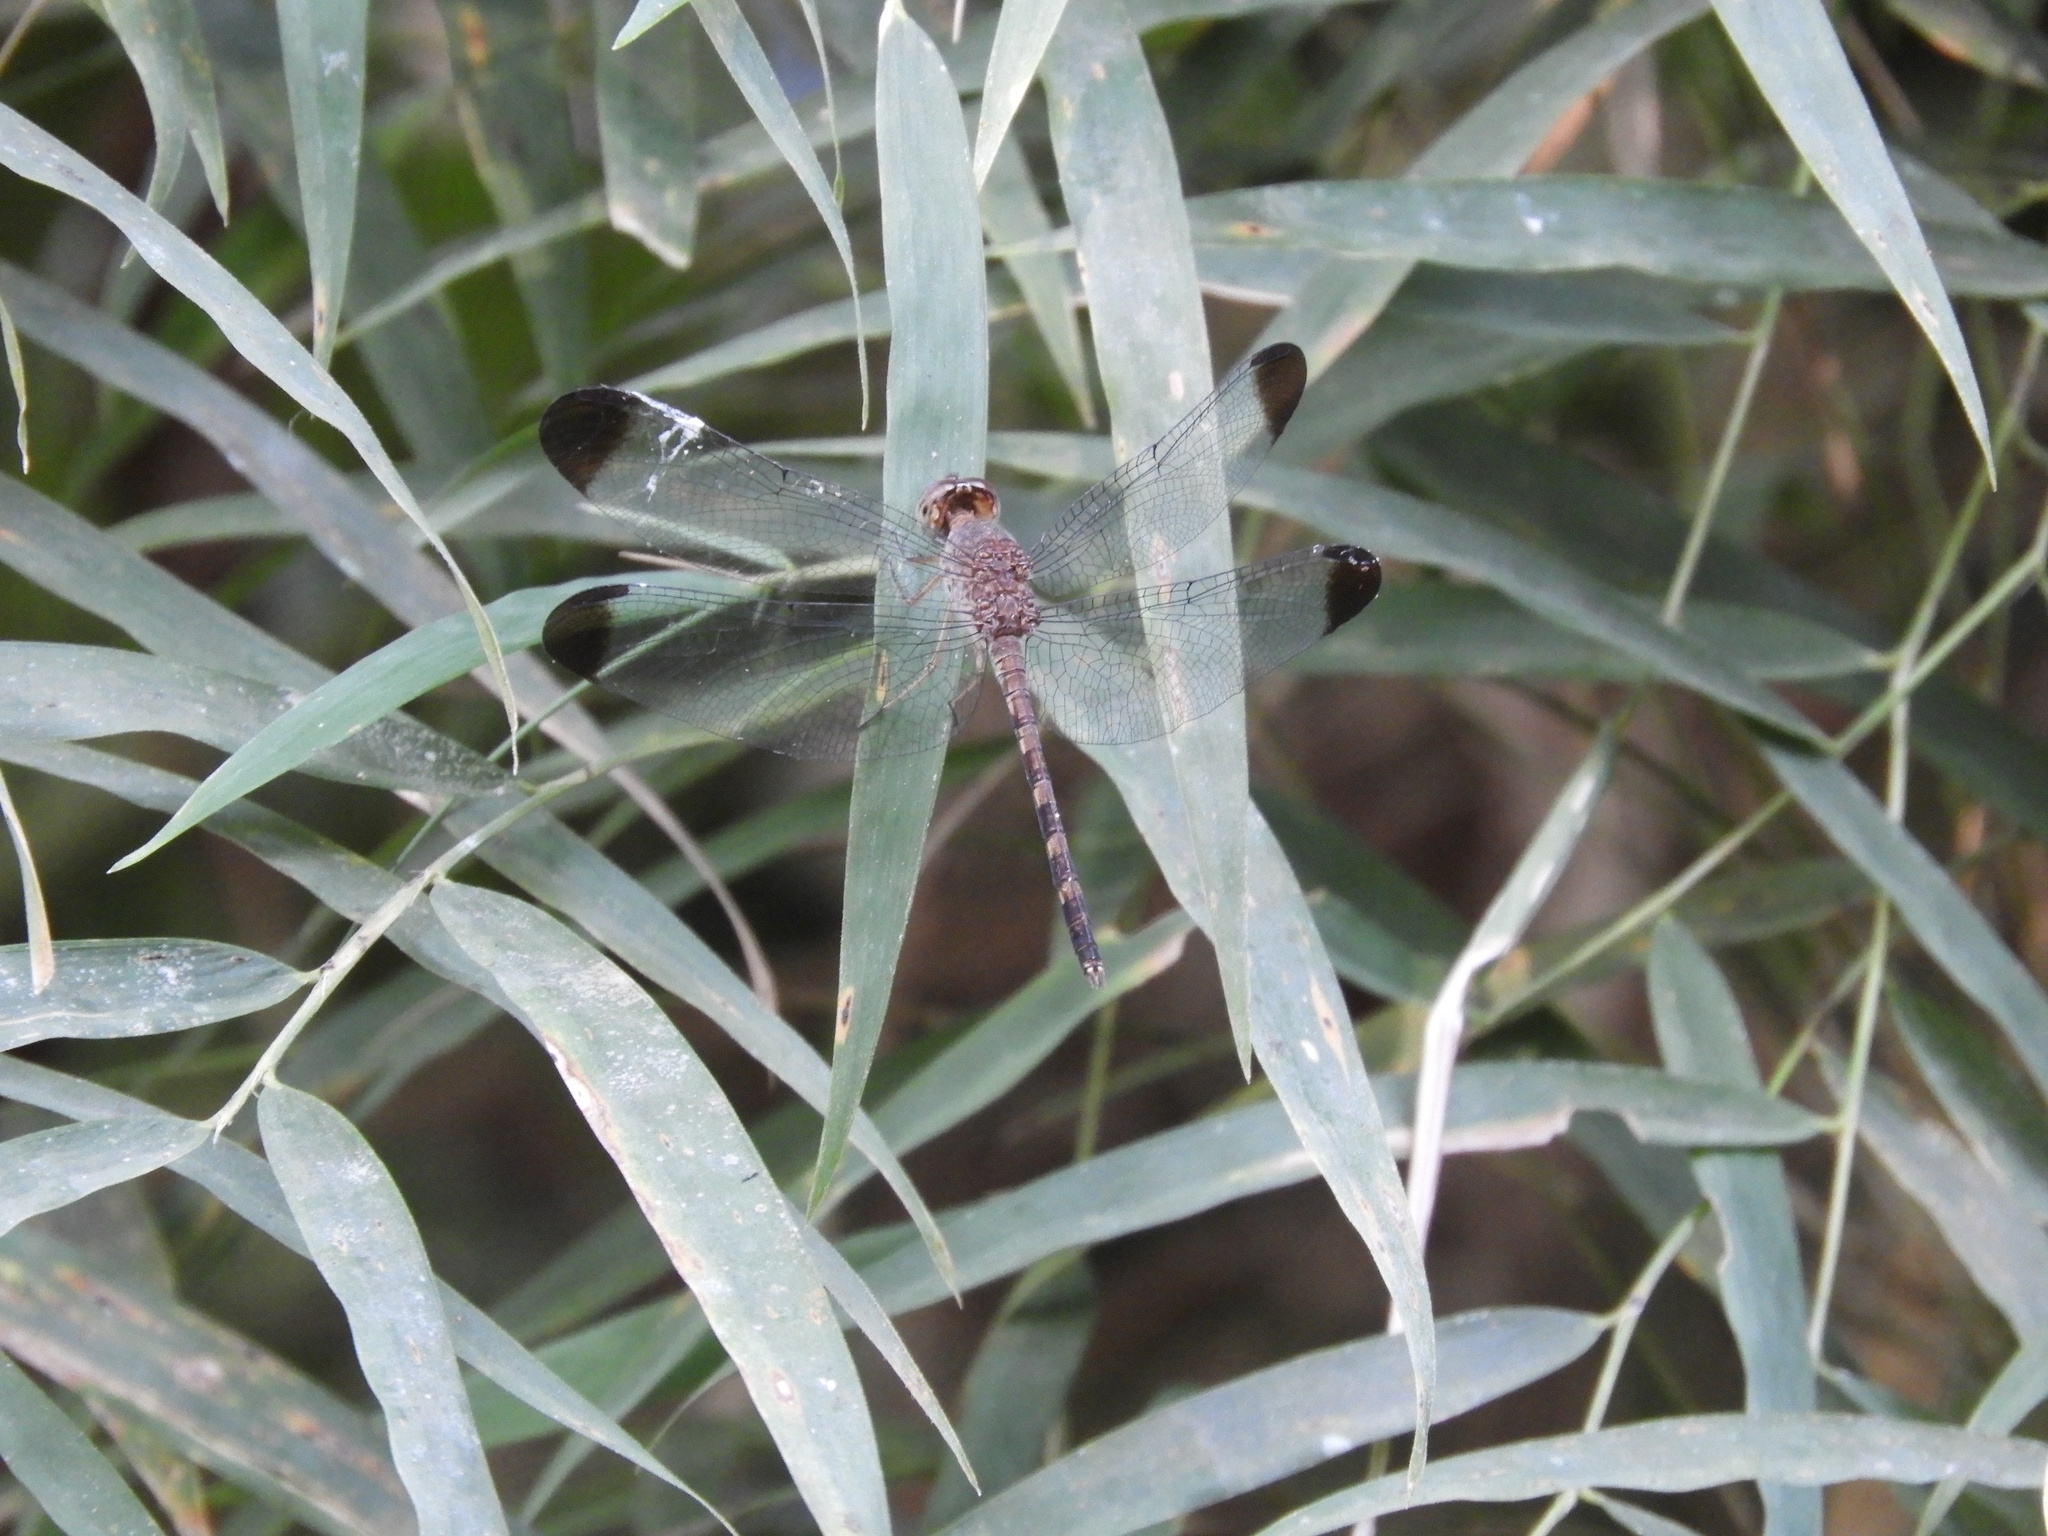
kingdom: Animalia
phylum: Arthropoda
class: Insecta
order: Odonata
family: Libellulidae
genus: Uracis
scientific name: Uracis imbuta
